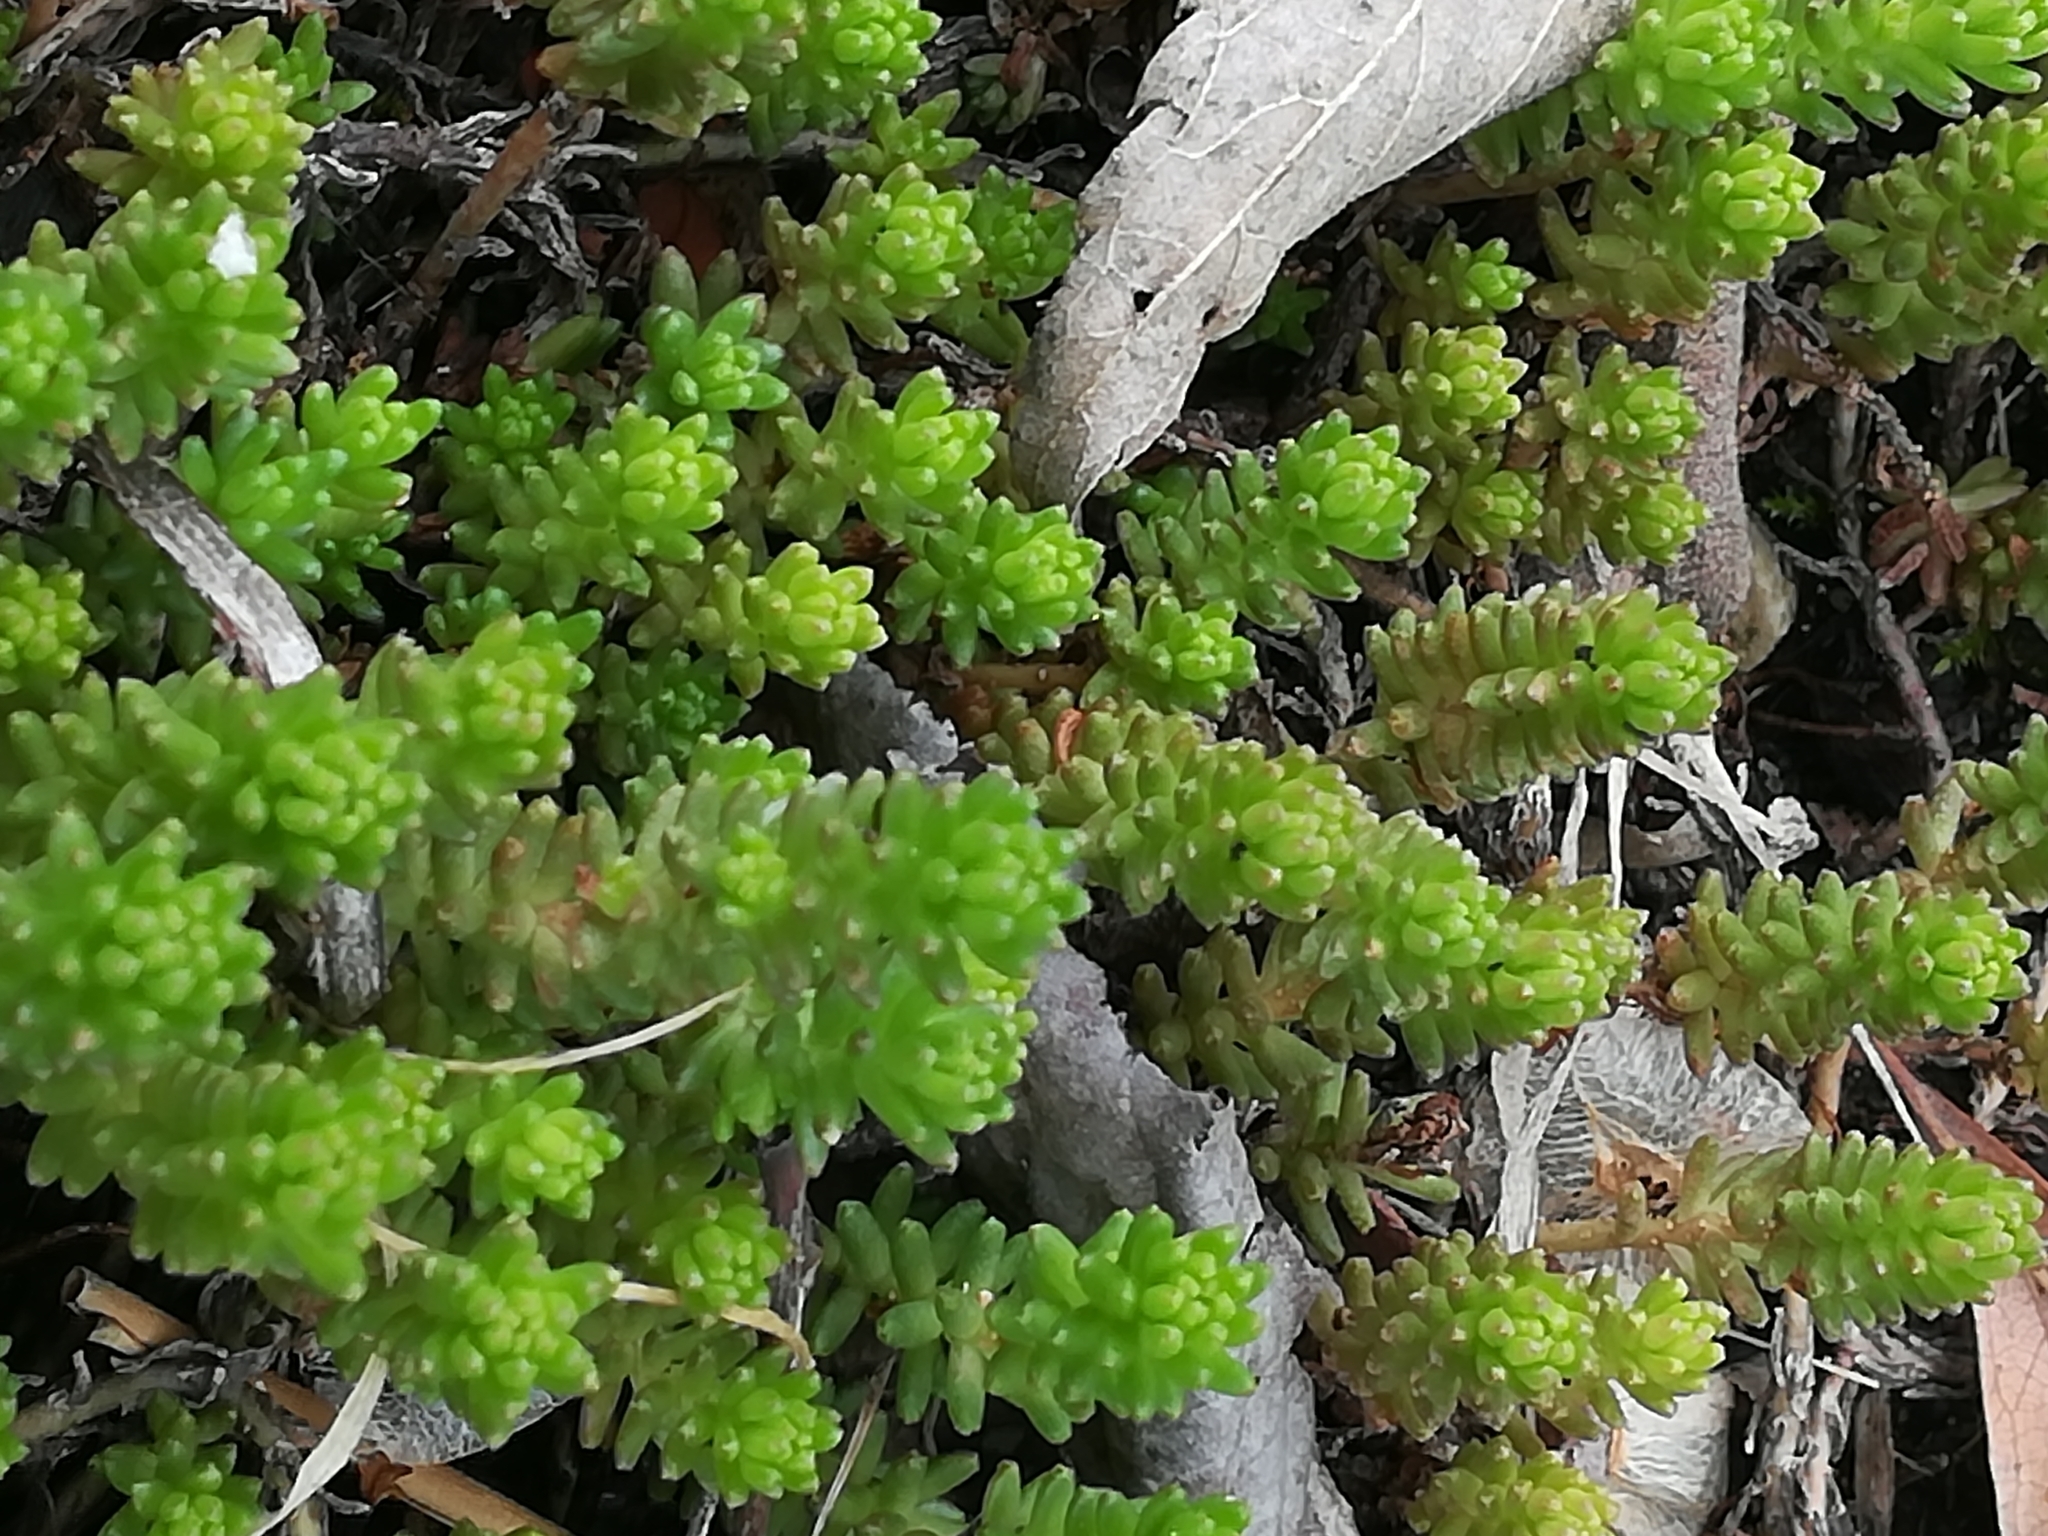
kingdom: Plantae
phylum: Tracheophyta
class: Magnoliopsida
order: Saxifragales
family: Crassulaceae
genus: Sedum
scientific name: Sedum sexangulare
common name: Tasteless stonecrop
